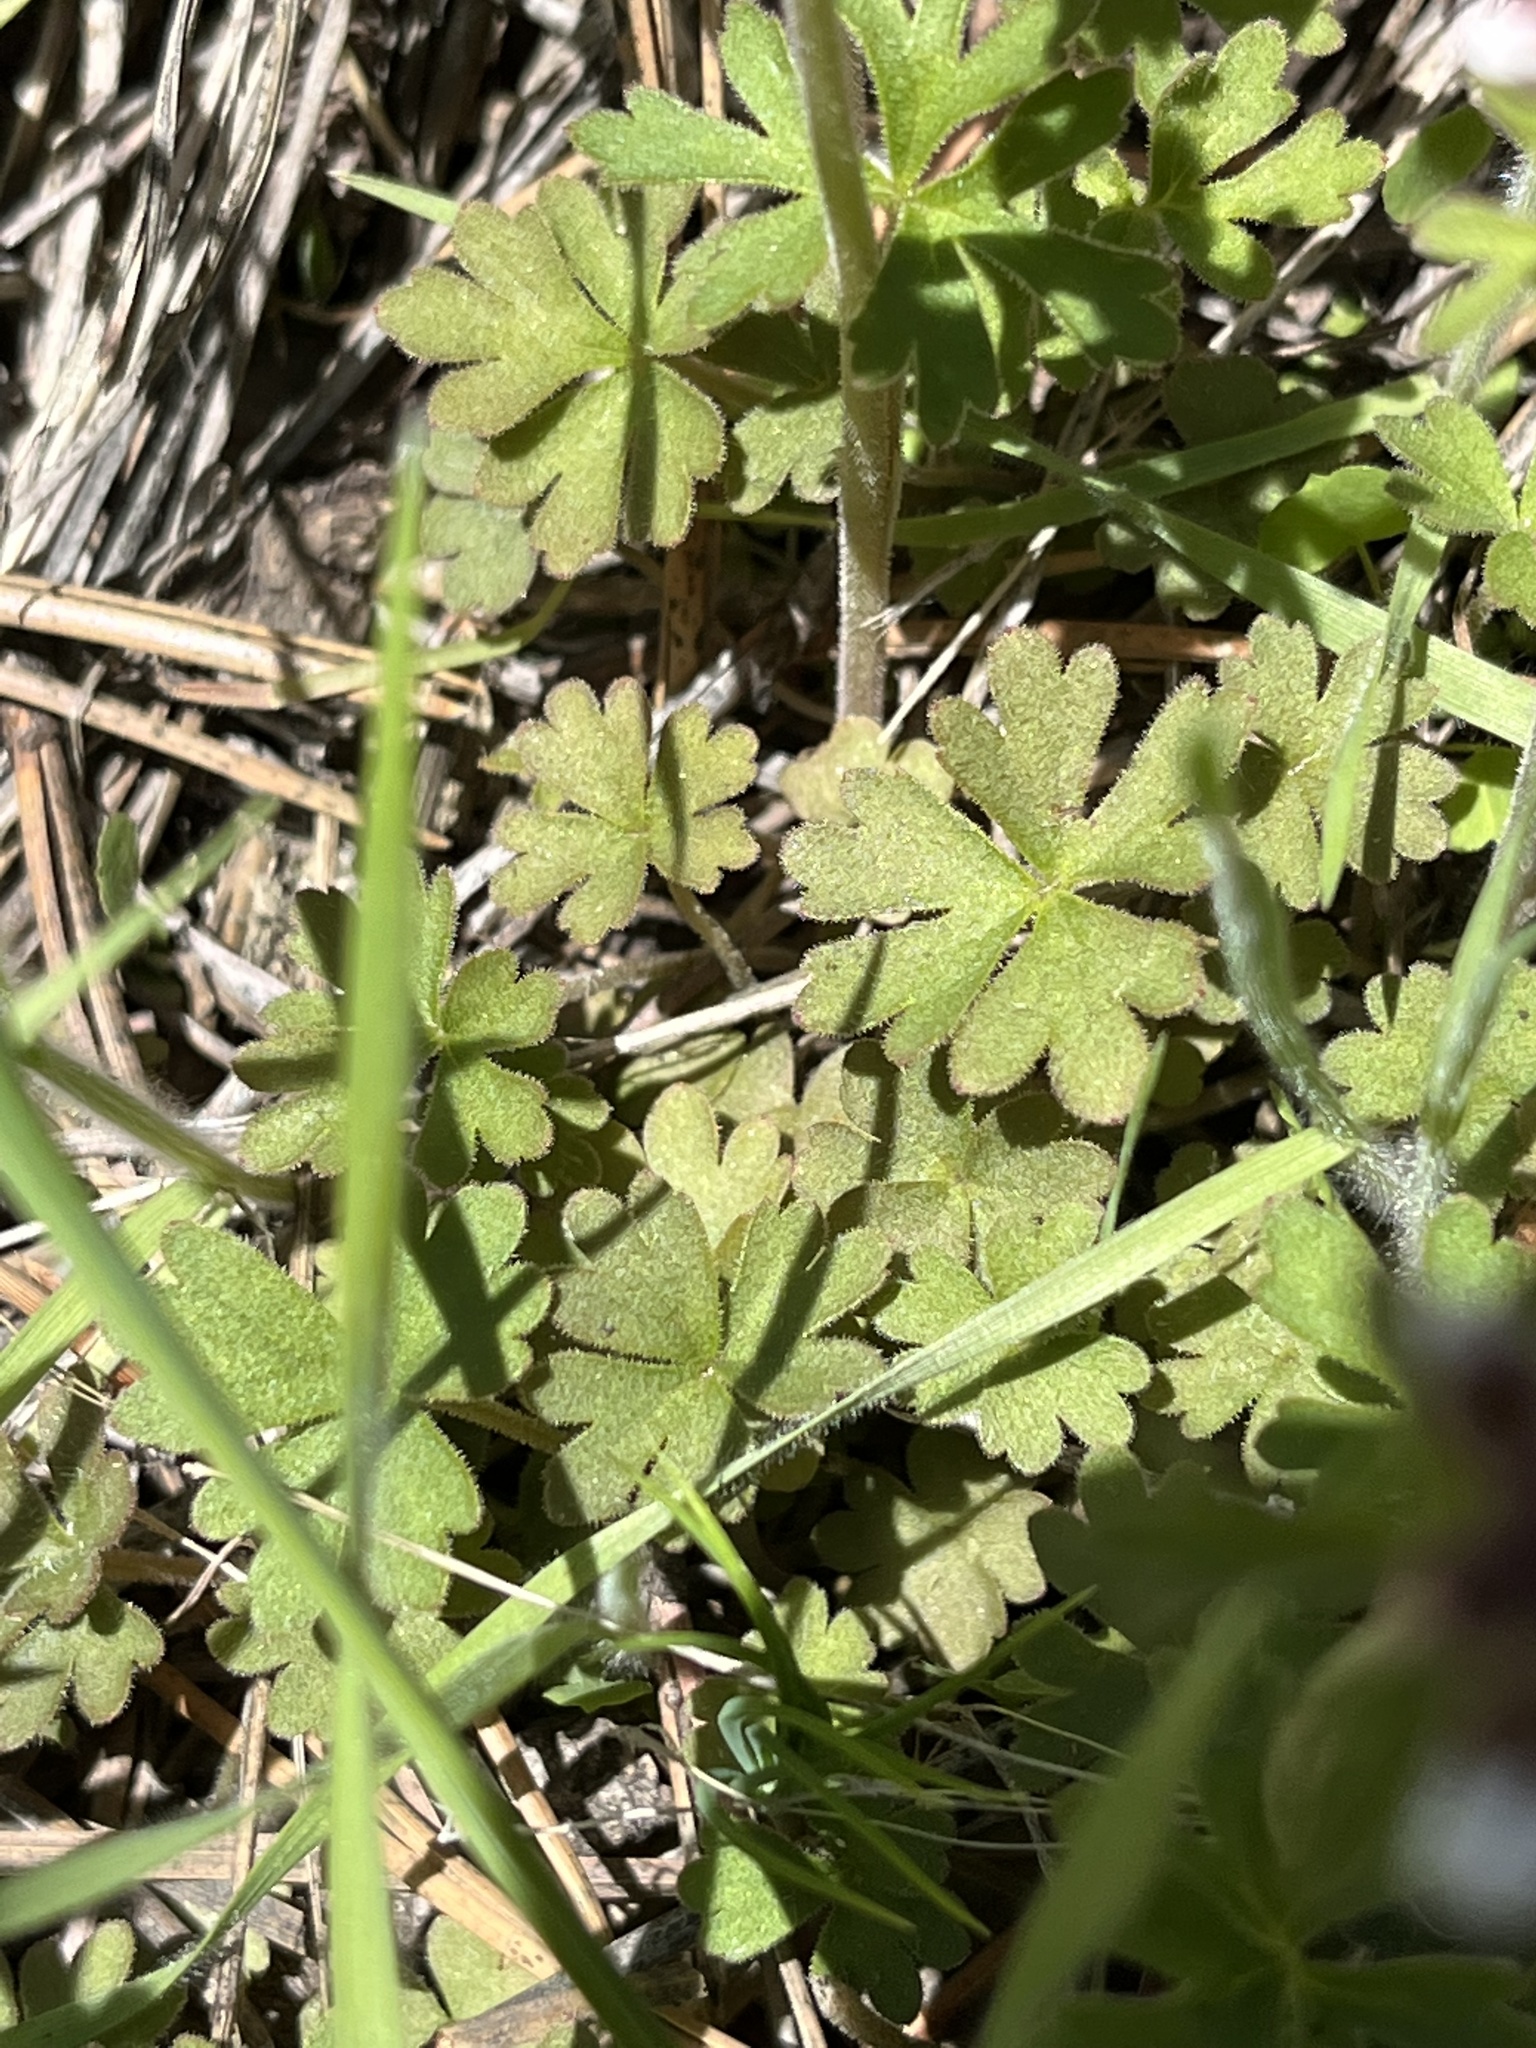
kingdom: Plantae
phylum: Tracheophyta
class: Magnoliopsida
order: Saxifragales
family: Saxifragaceae
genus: Lithophragma
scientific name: Lithophragma parviflorum
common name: Small-flowered fringe-cup
